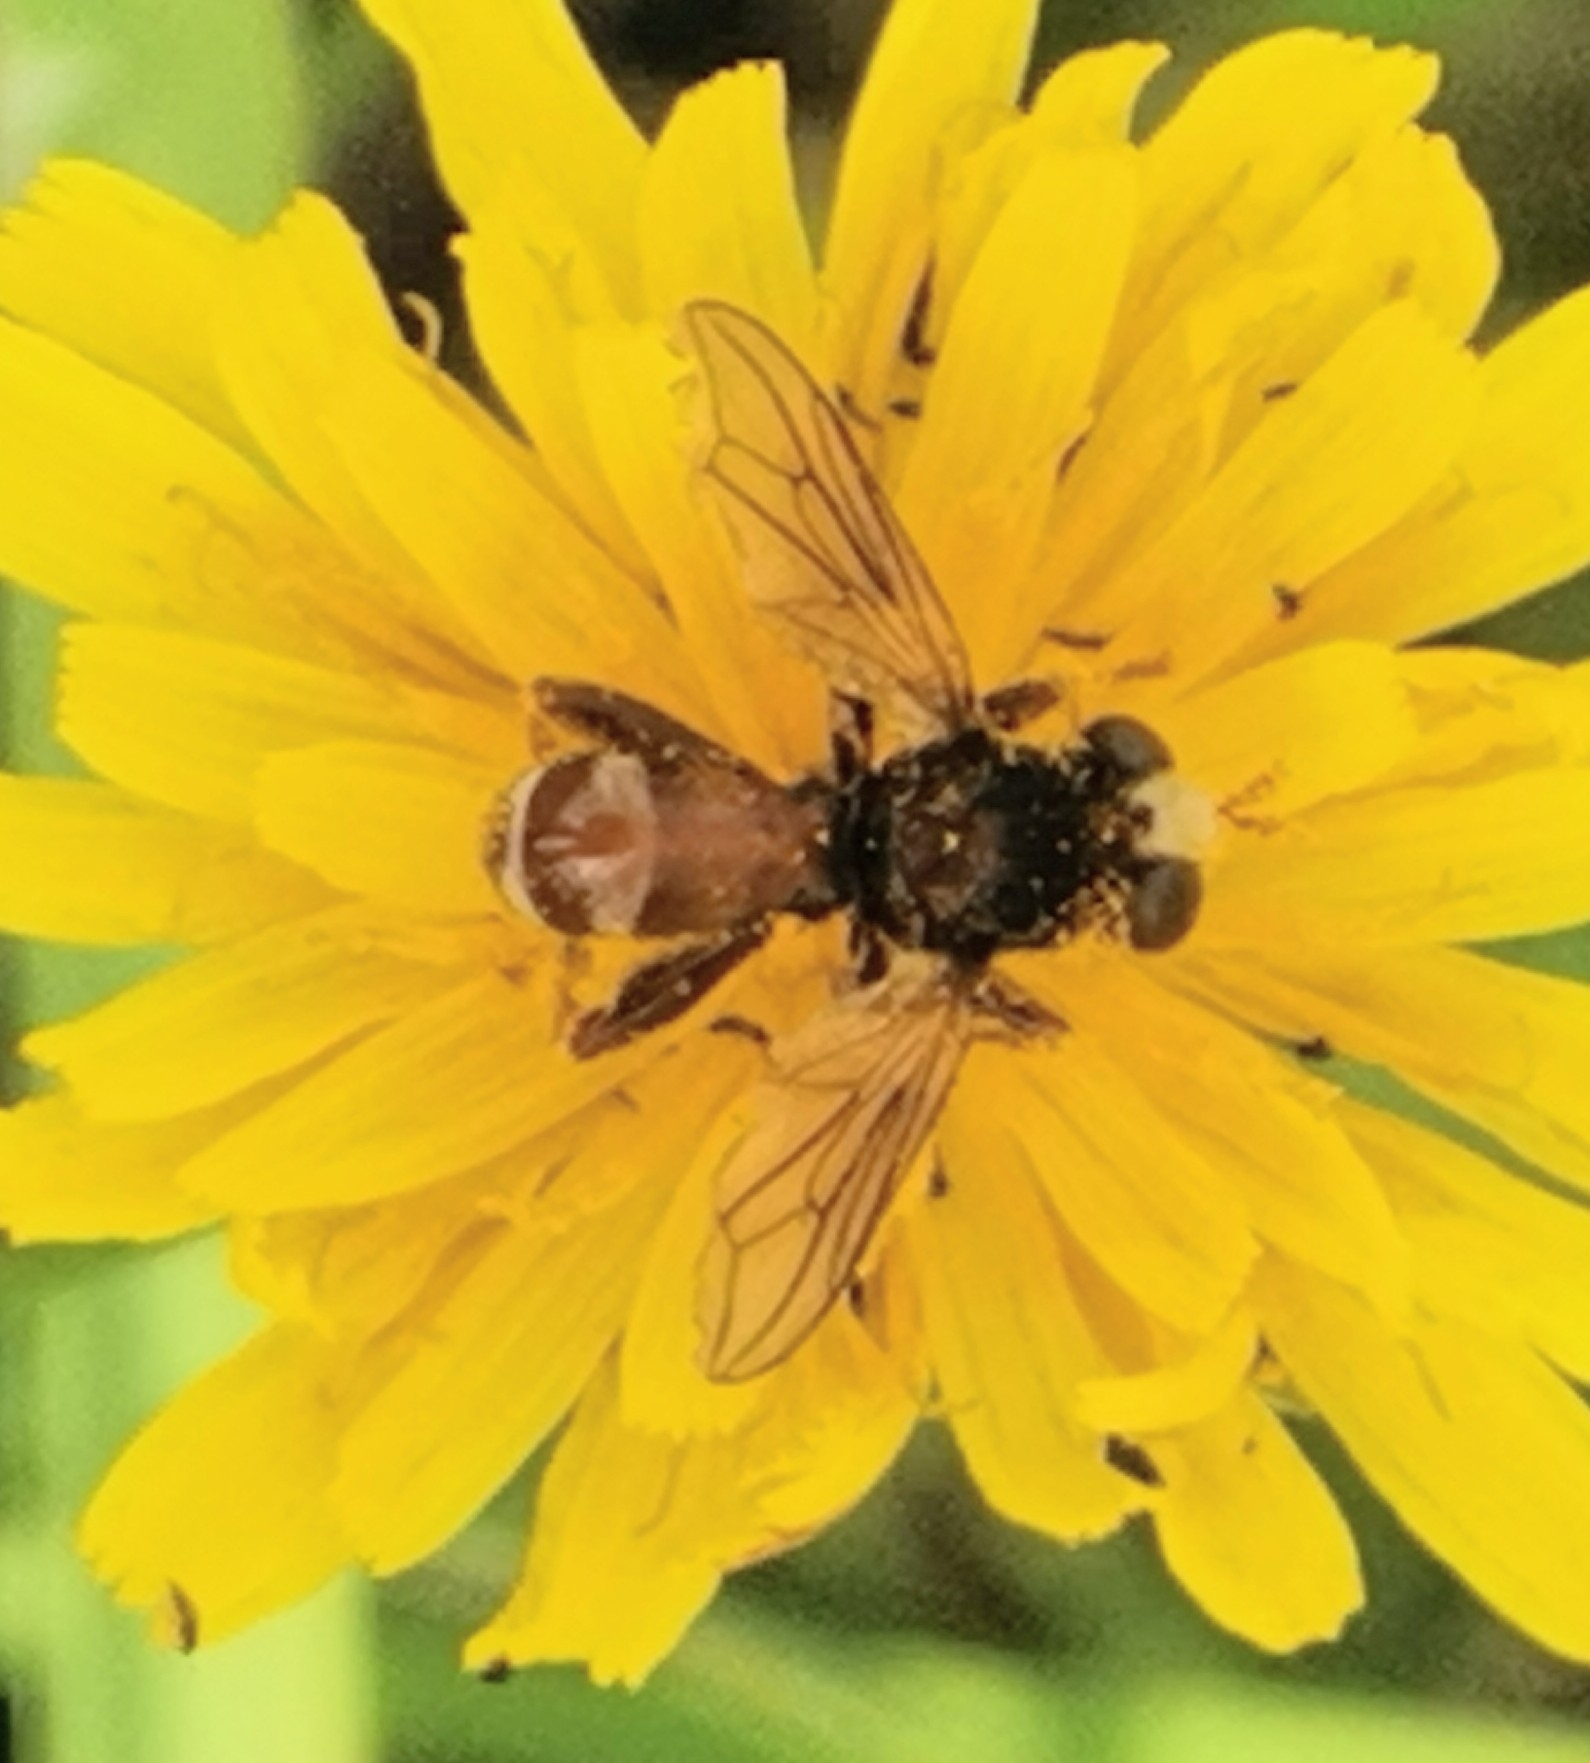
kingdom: Animalia
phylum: Arthropoda
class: Insecta
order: Diptera
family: Conopidae
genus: Sicus
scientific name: Sicus ferrugineus
